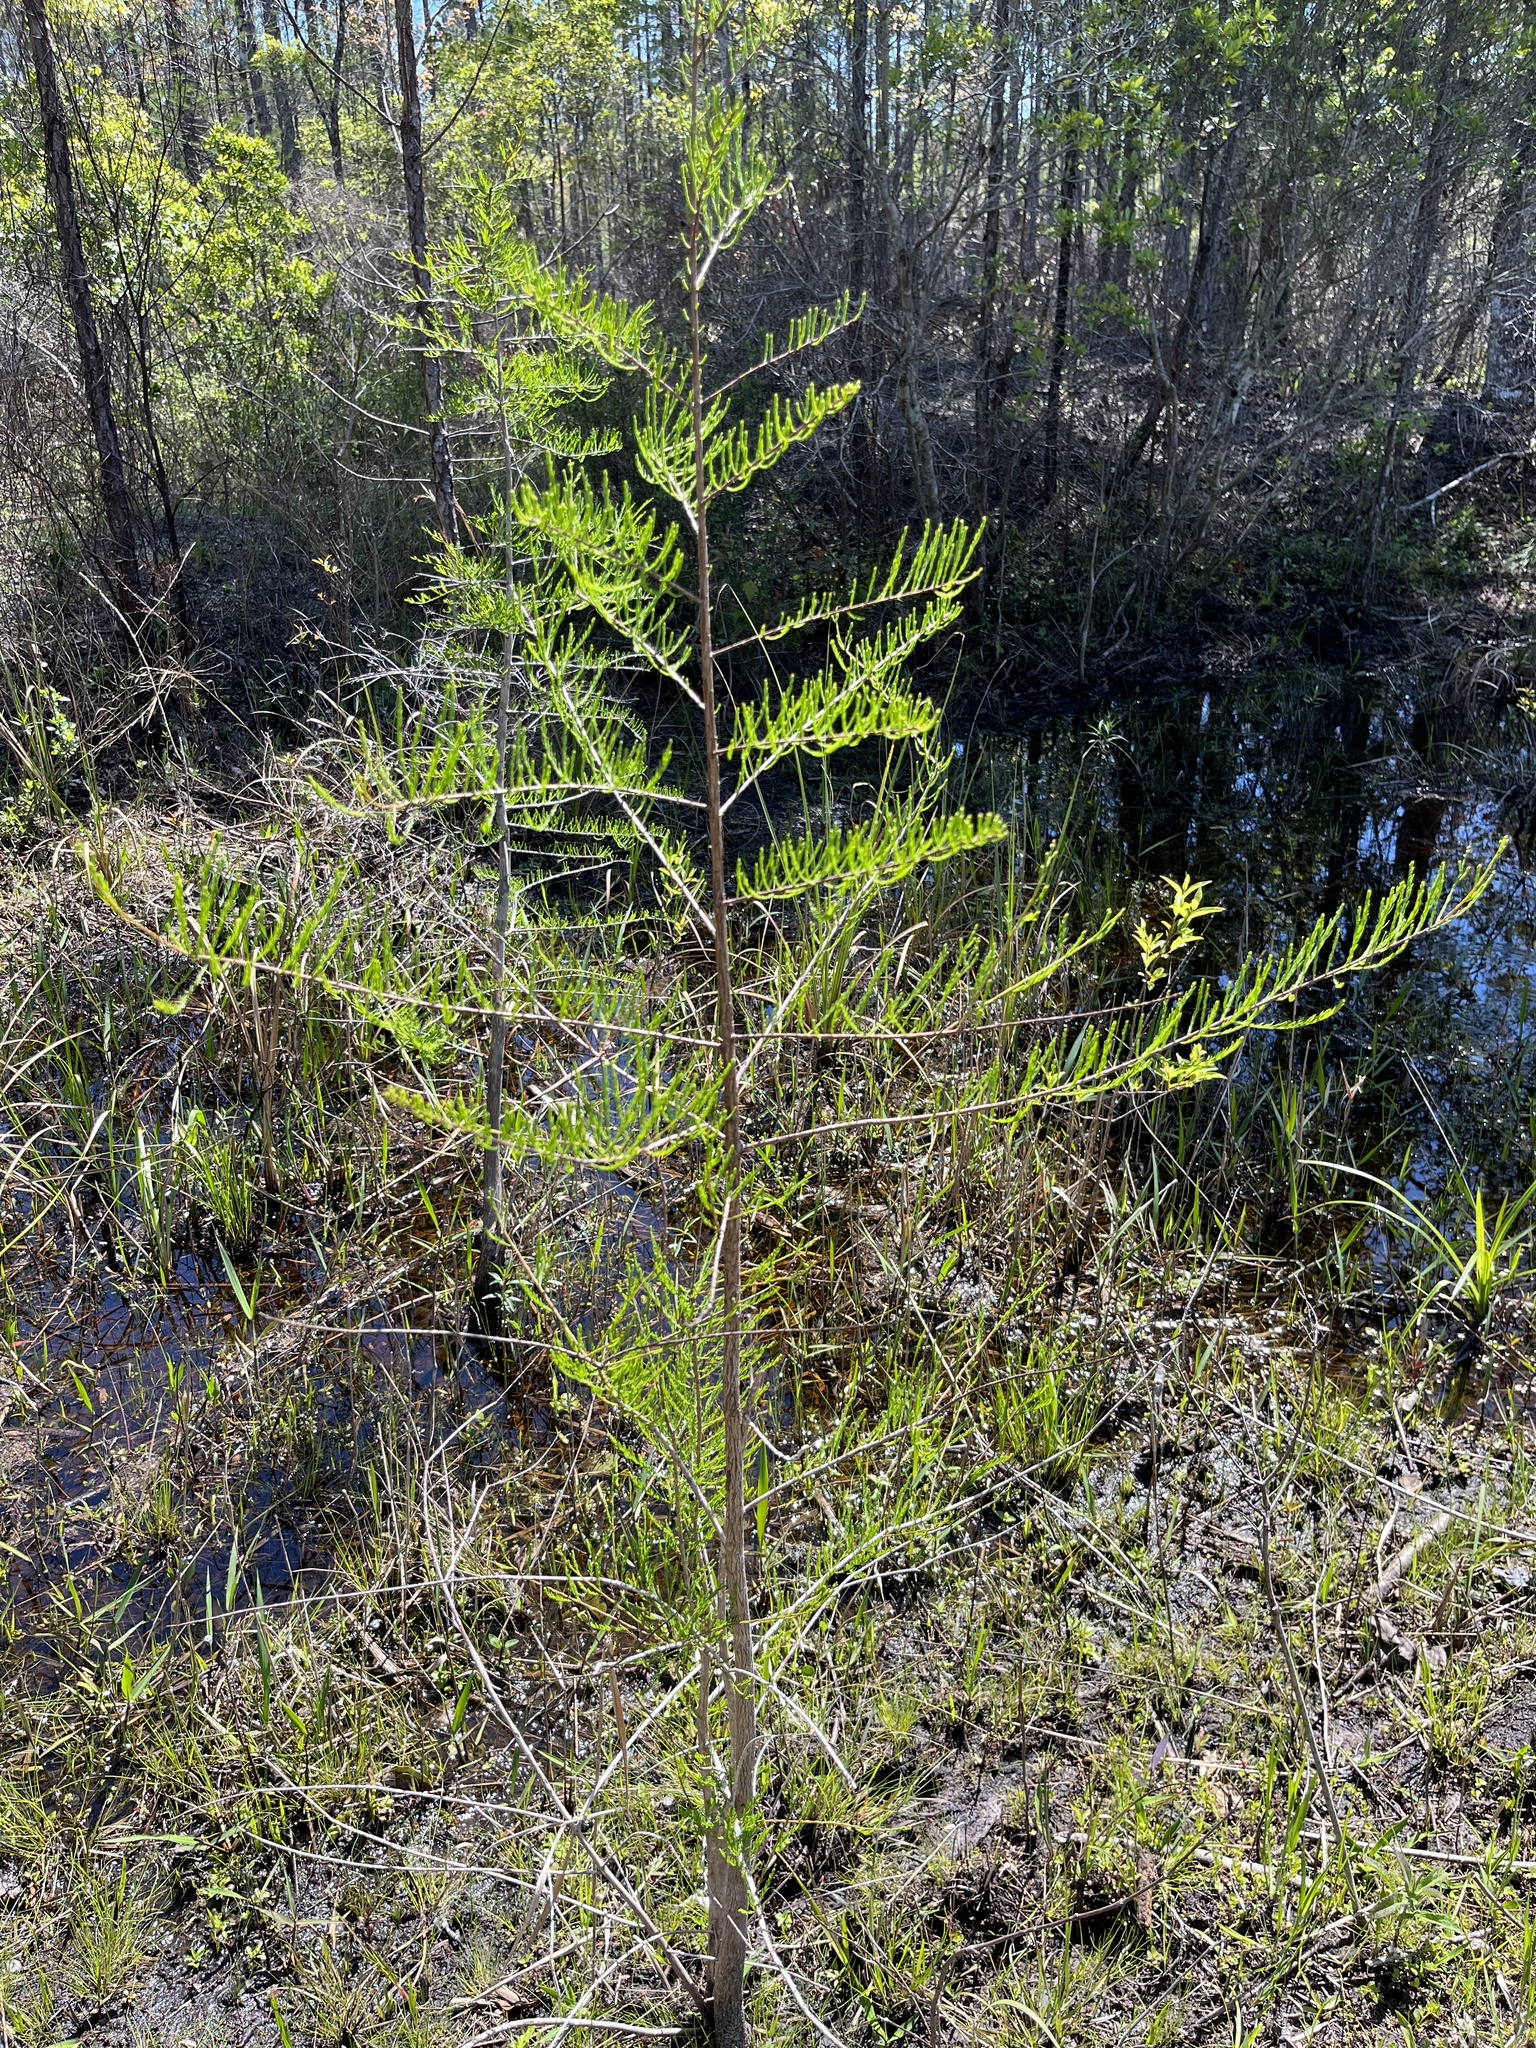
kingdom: Plantae
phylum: Tracheophyta
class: Pinopsida
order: Pinales
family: Cupressaceae
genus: Taxodium
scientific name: Taxodium distichum
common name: Bald cypress
